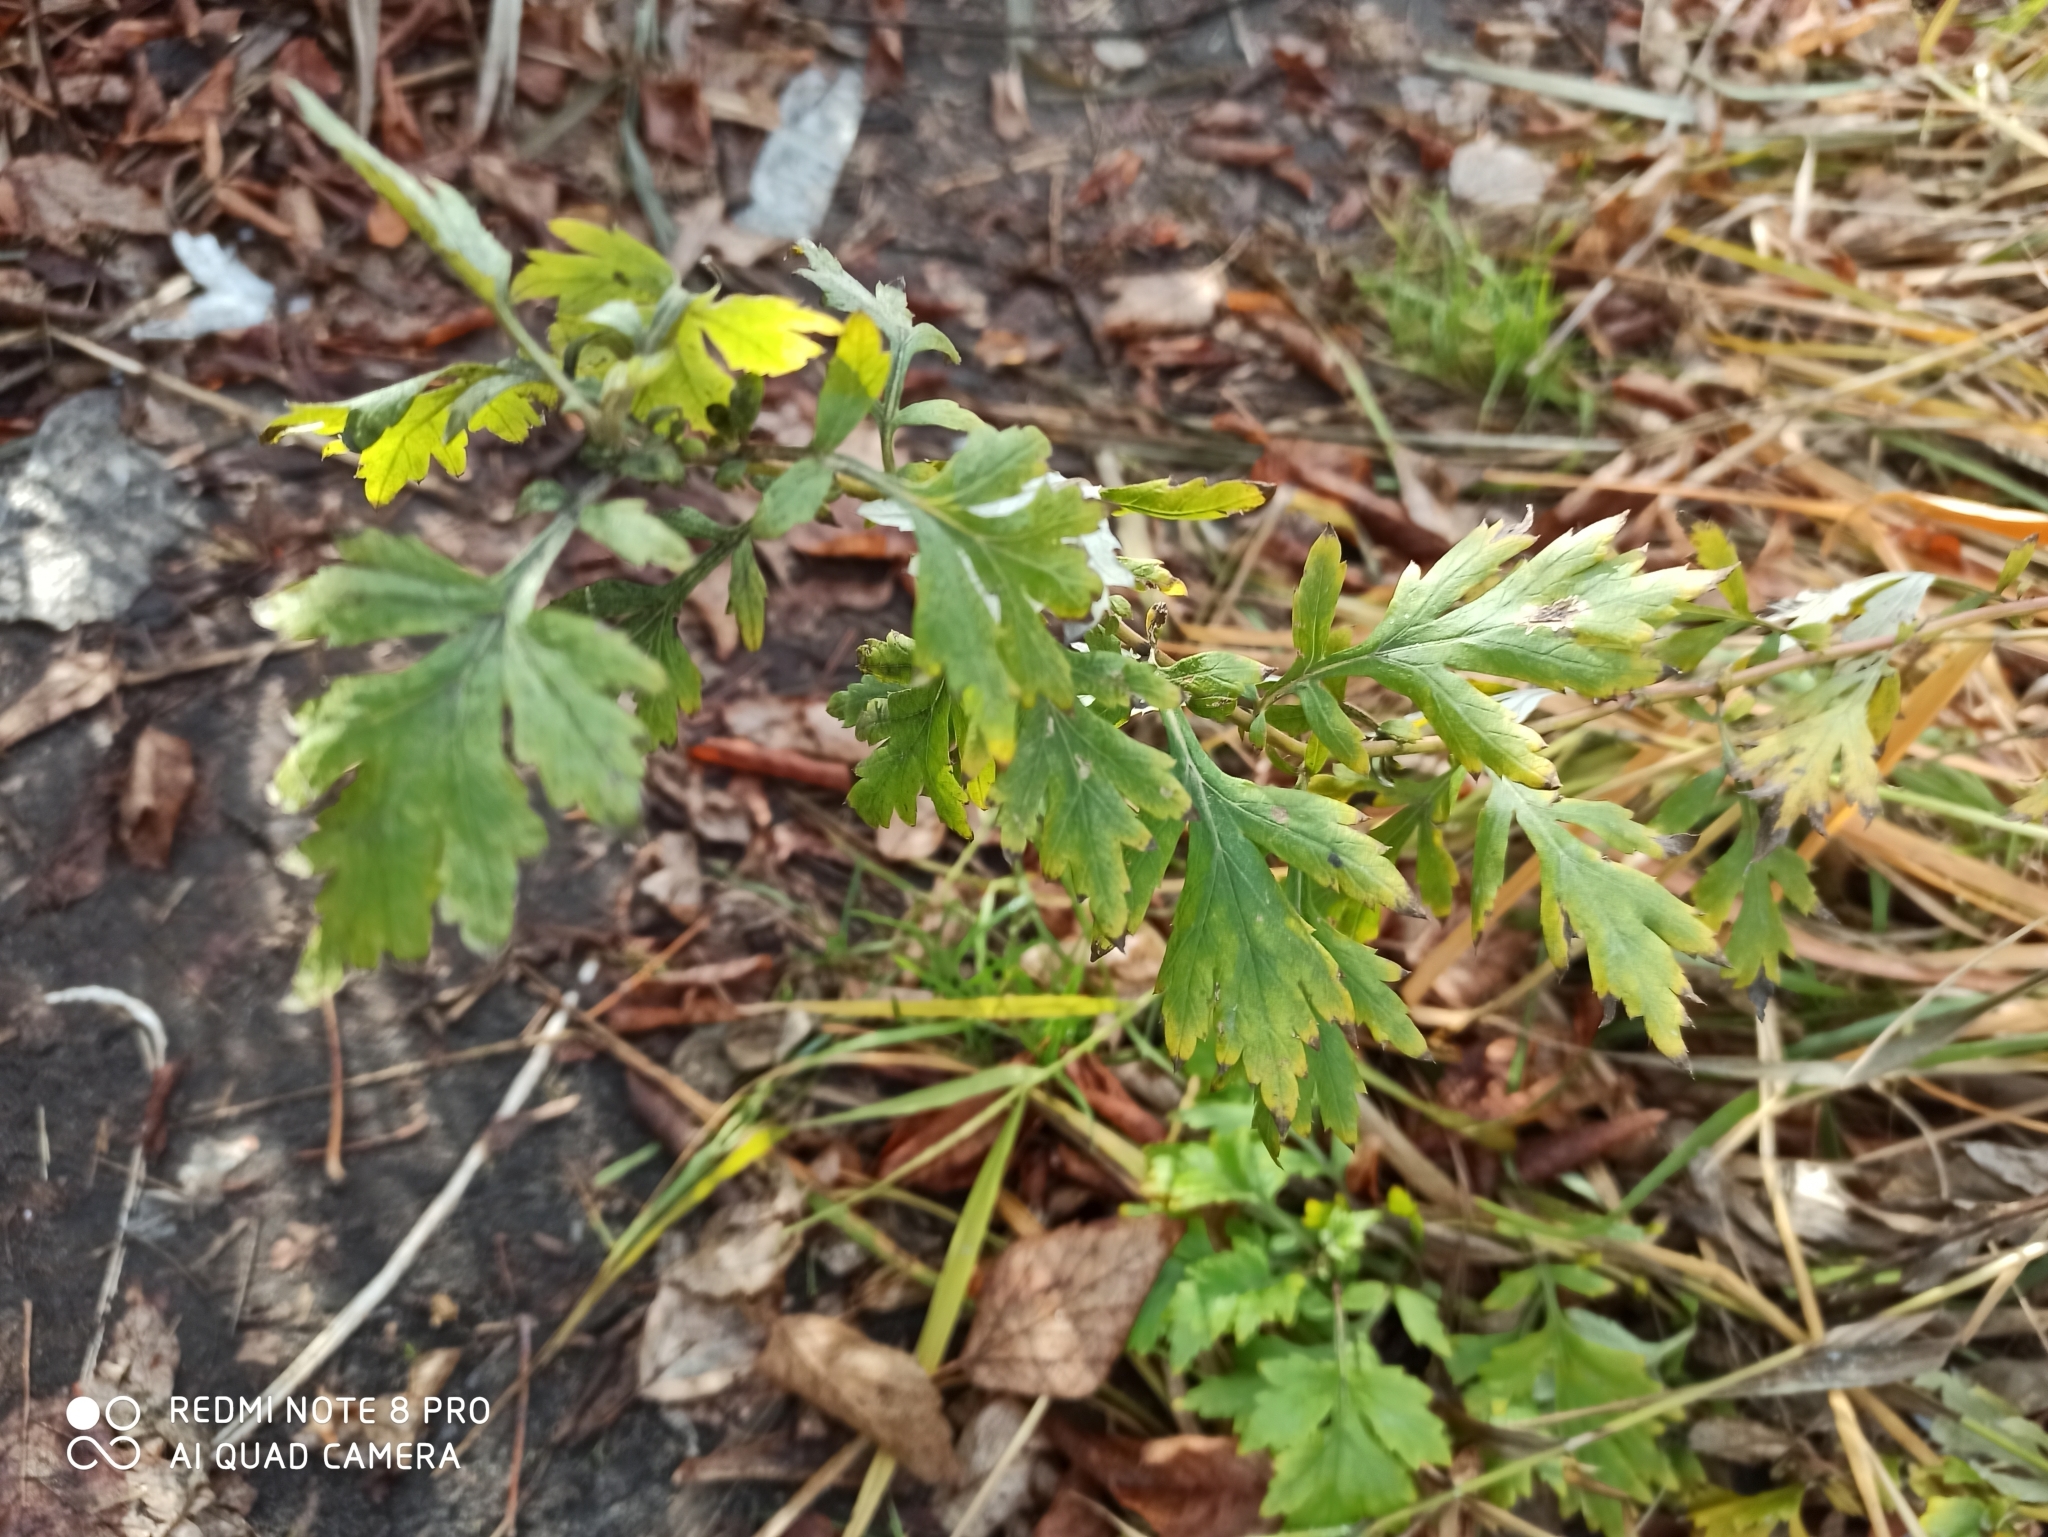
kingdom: Plantae
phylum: Tracheophyta
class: Magnoliopsida
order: Asterales
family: Asteraceae
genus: Artemisia
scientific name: Artemisia vulgaris
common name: Mugwort
